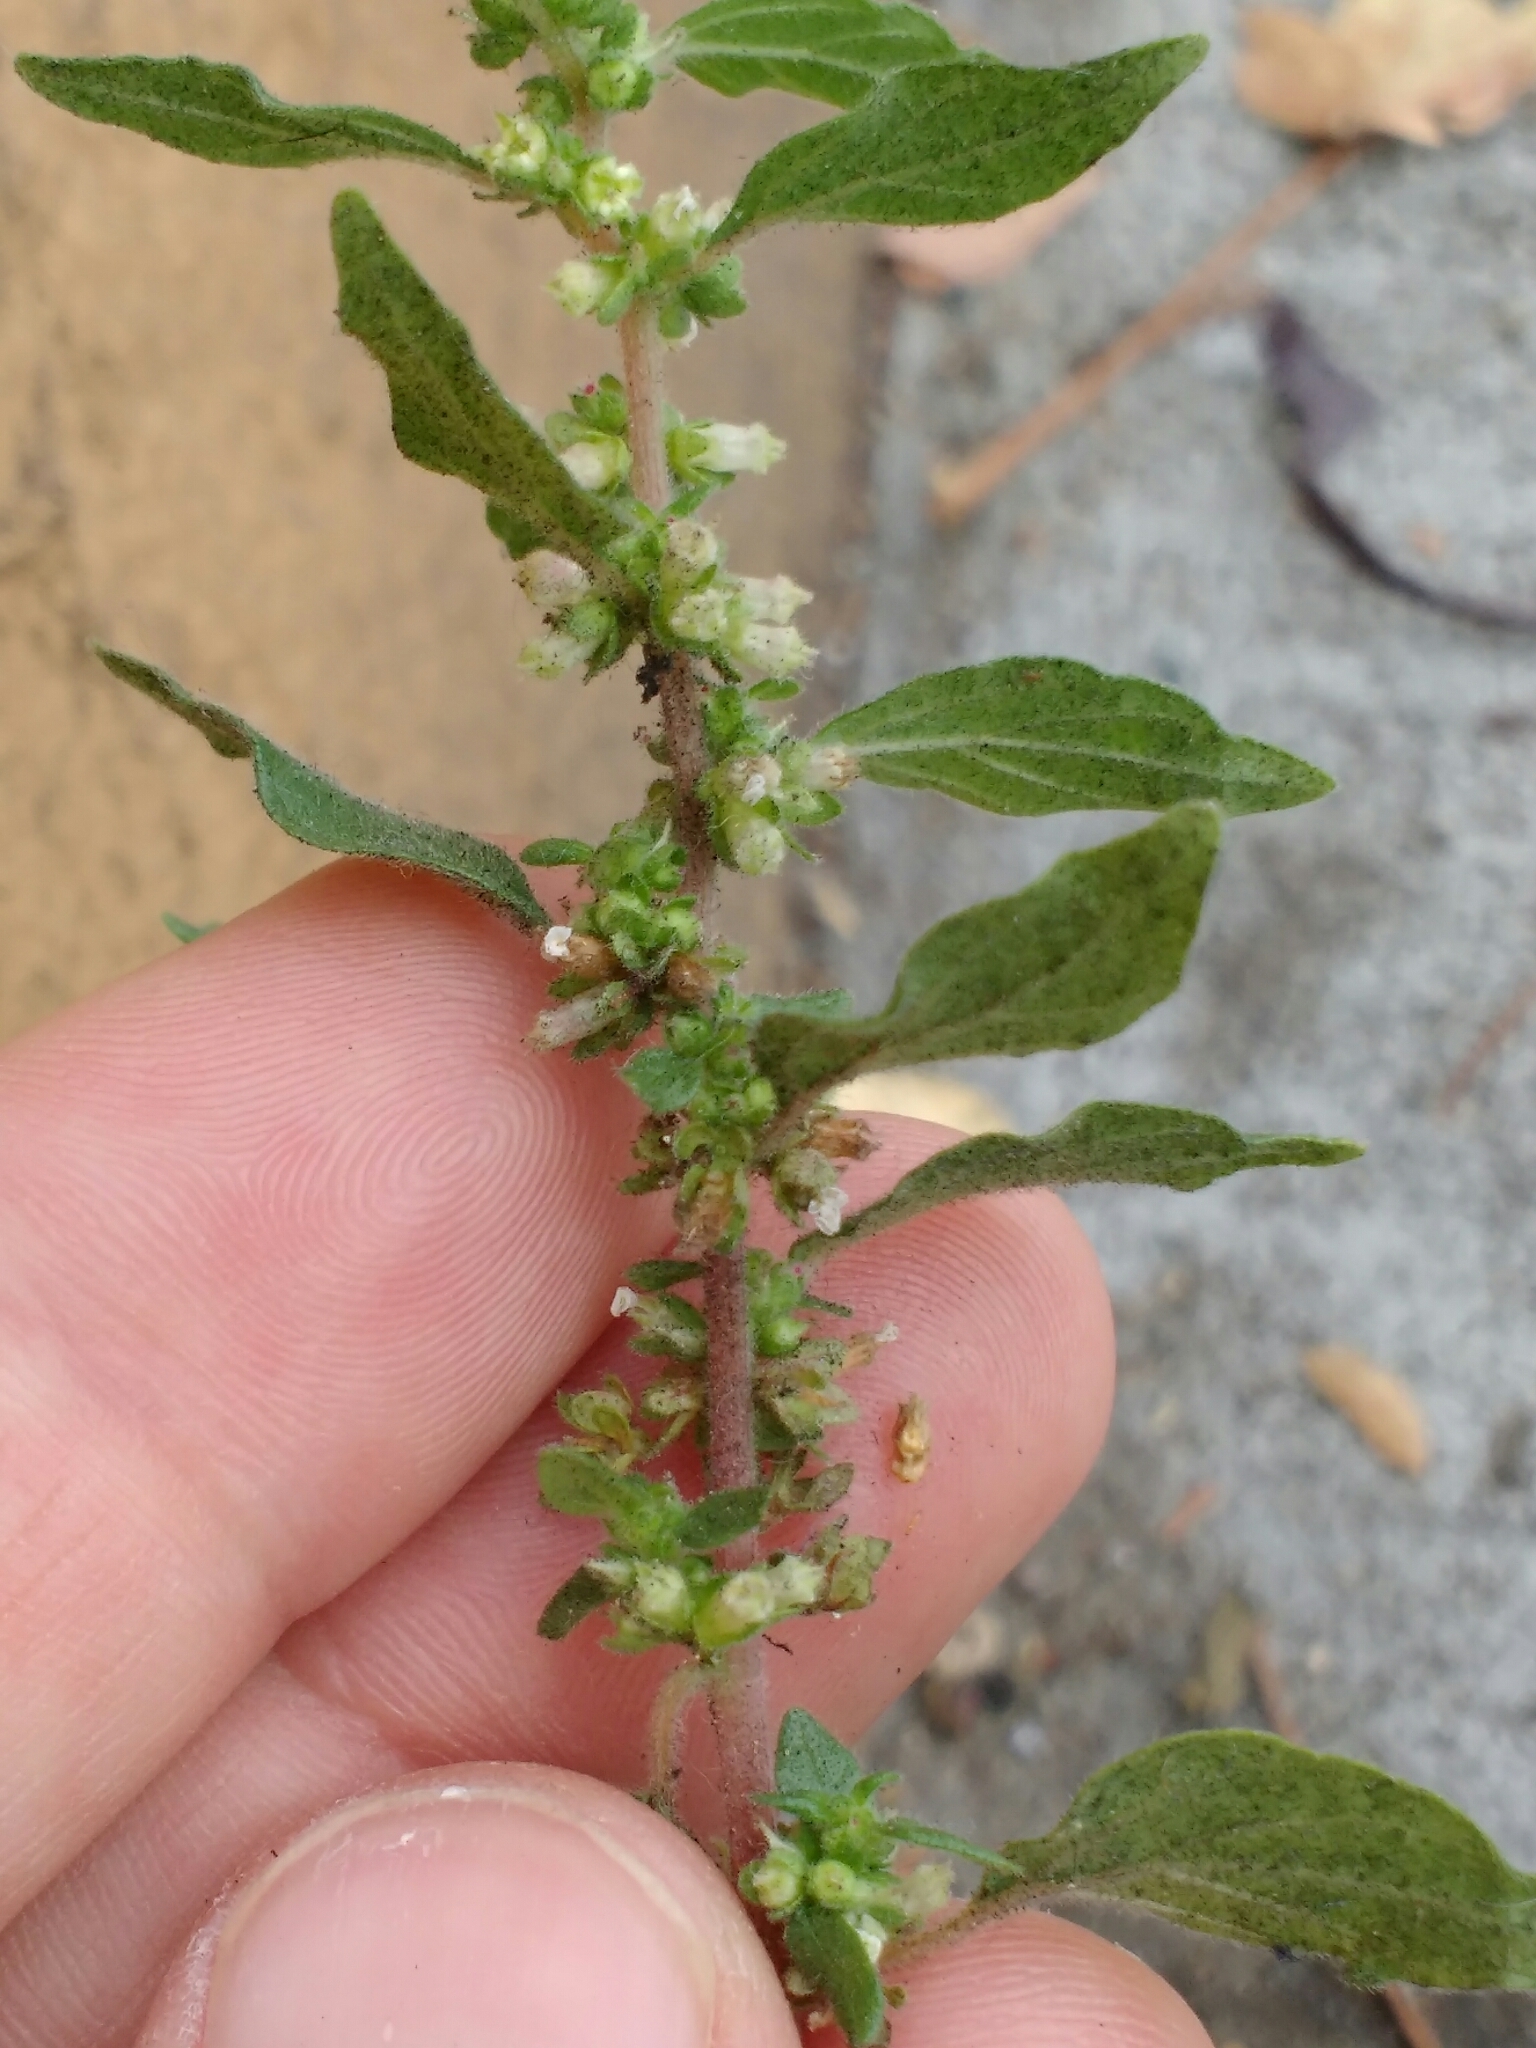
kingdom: Plantae
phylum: Tracheophyta
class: Magnoliopsida
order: Rosales
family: Urticaceae
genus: Parietaria
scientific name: Parietaria judaica
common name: Pellitory-of-the-wall
